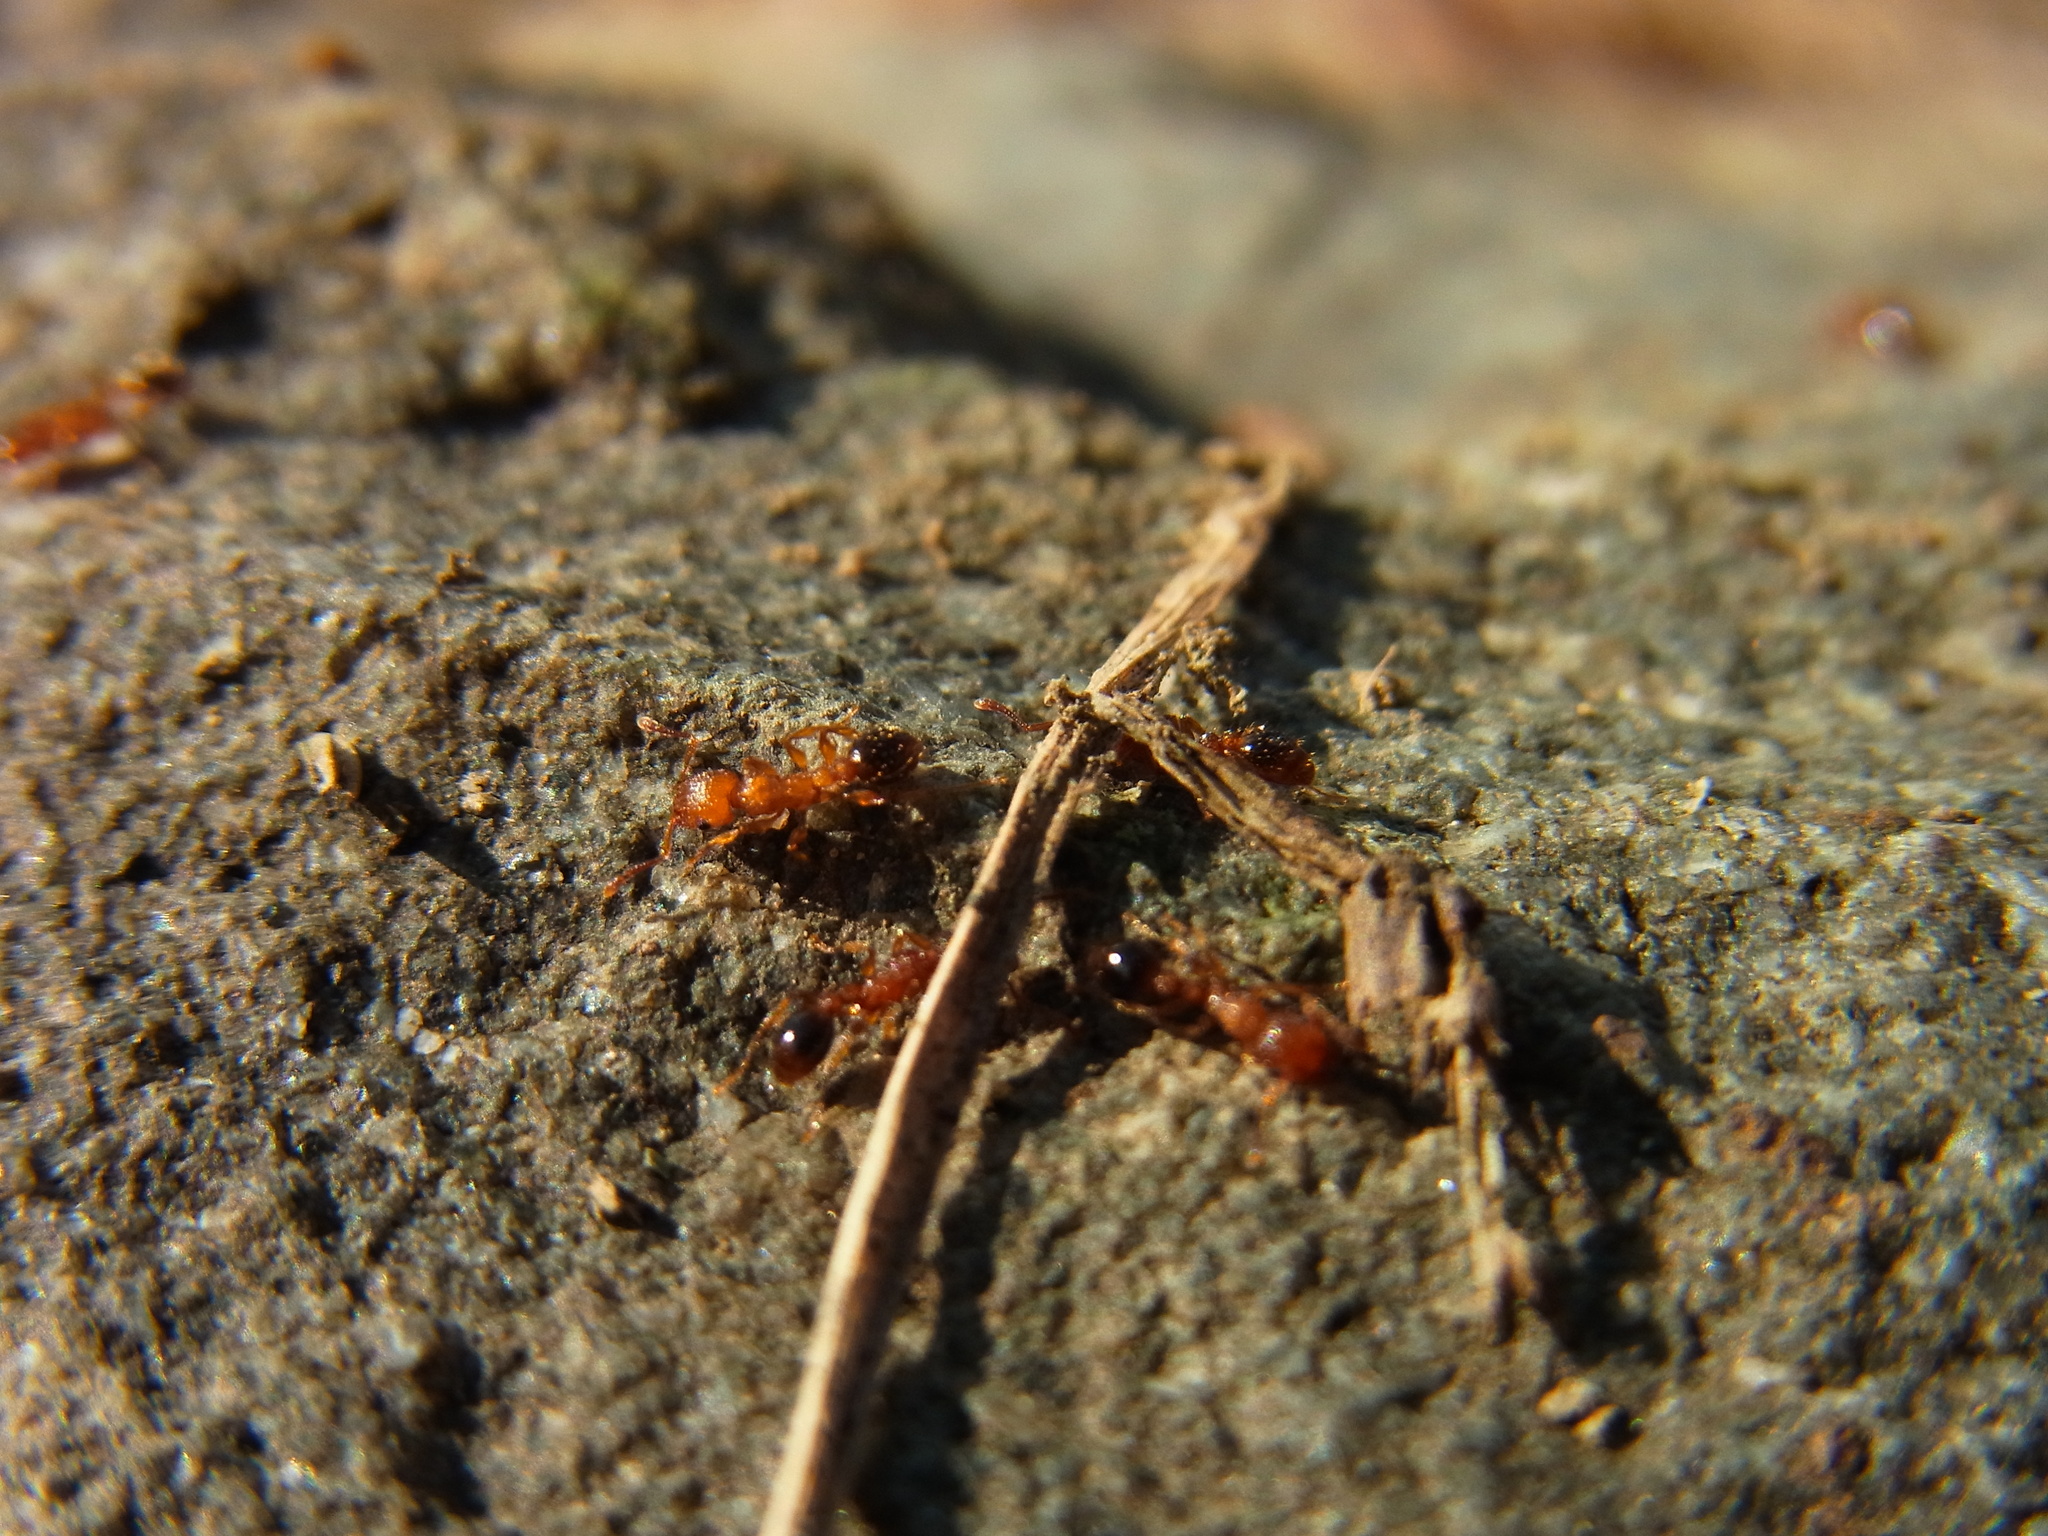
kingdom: Animalia
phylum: Arthropoda
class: Insecta
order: Hymenoptera
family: Formicidae
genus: Tetramorium
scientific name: Tetramorium bicarinatum
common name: Guinea ant
